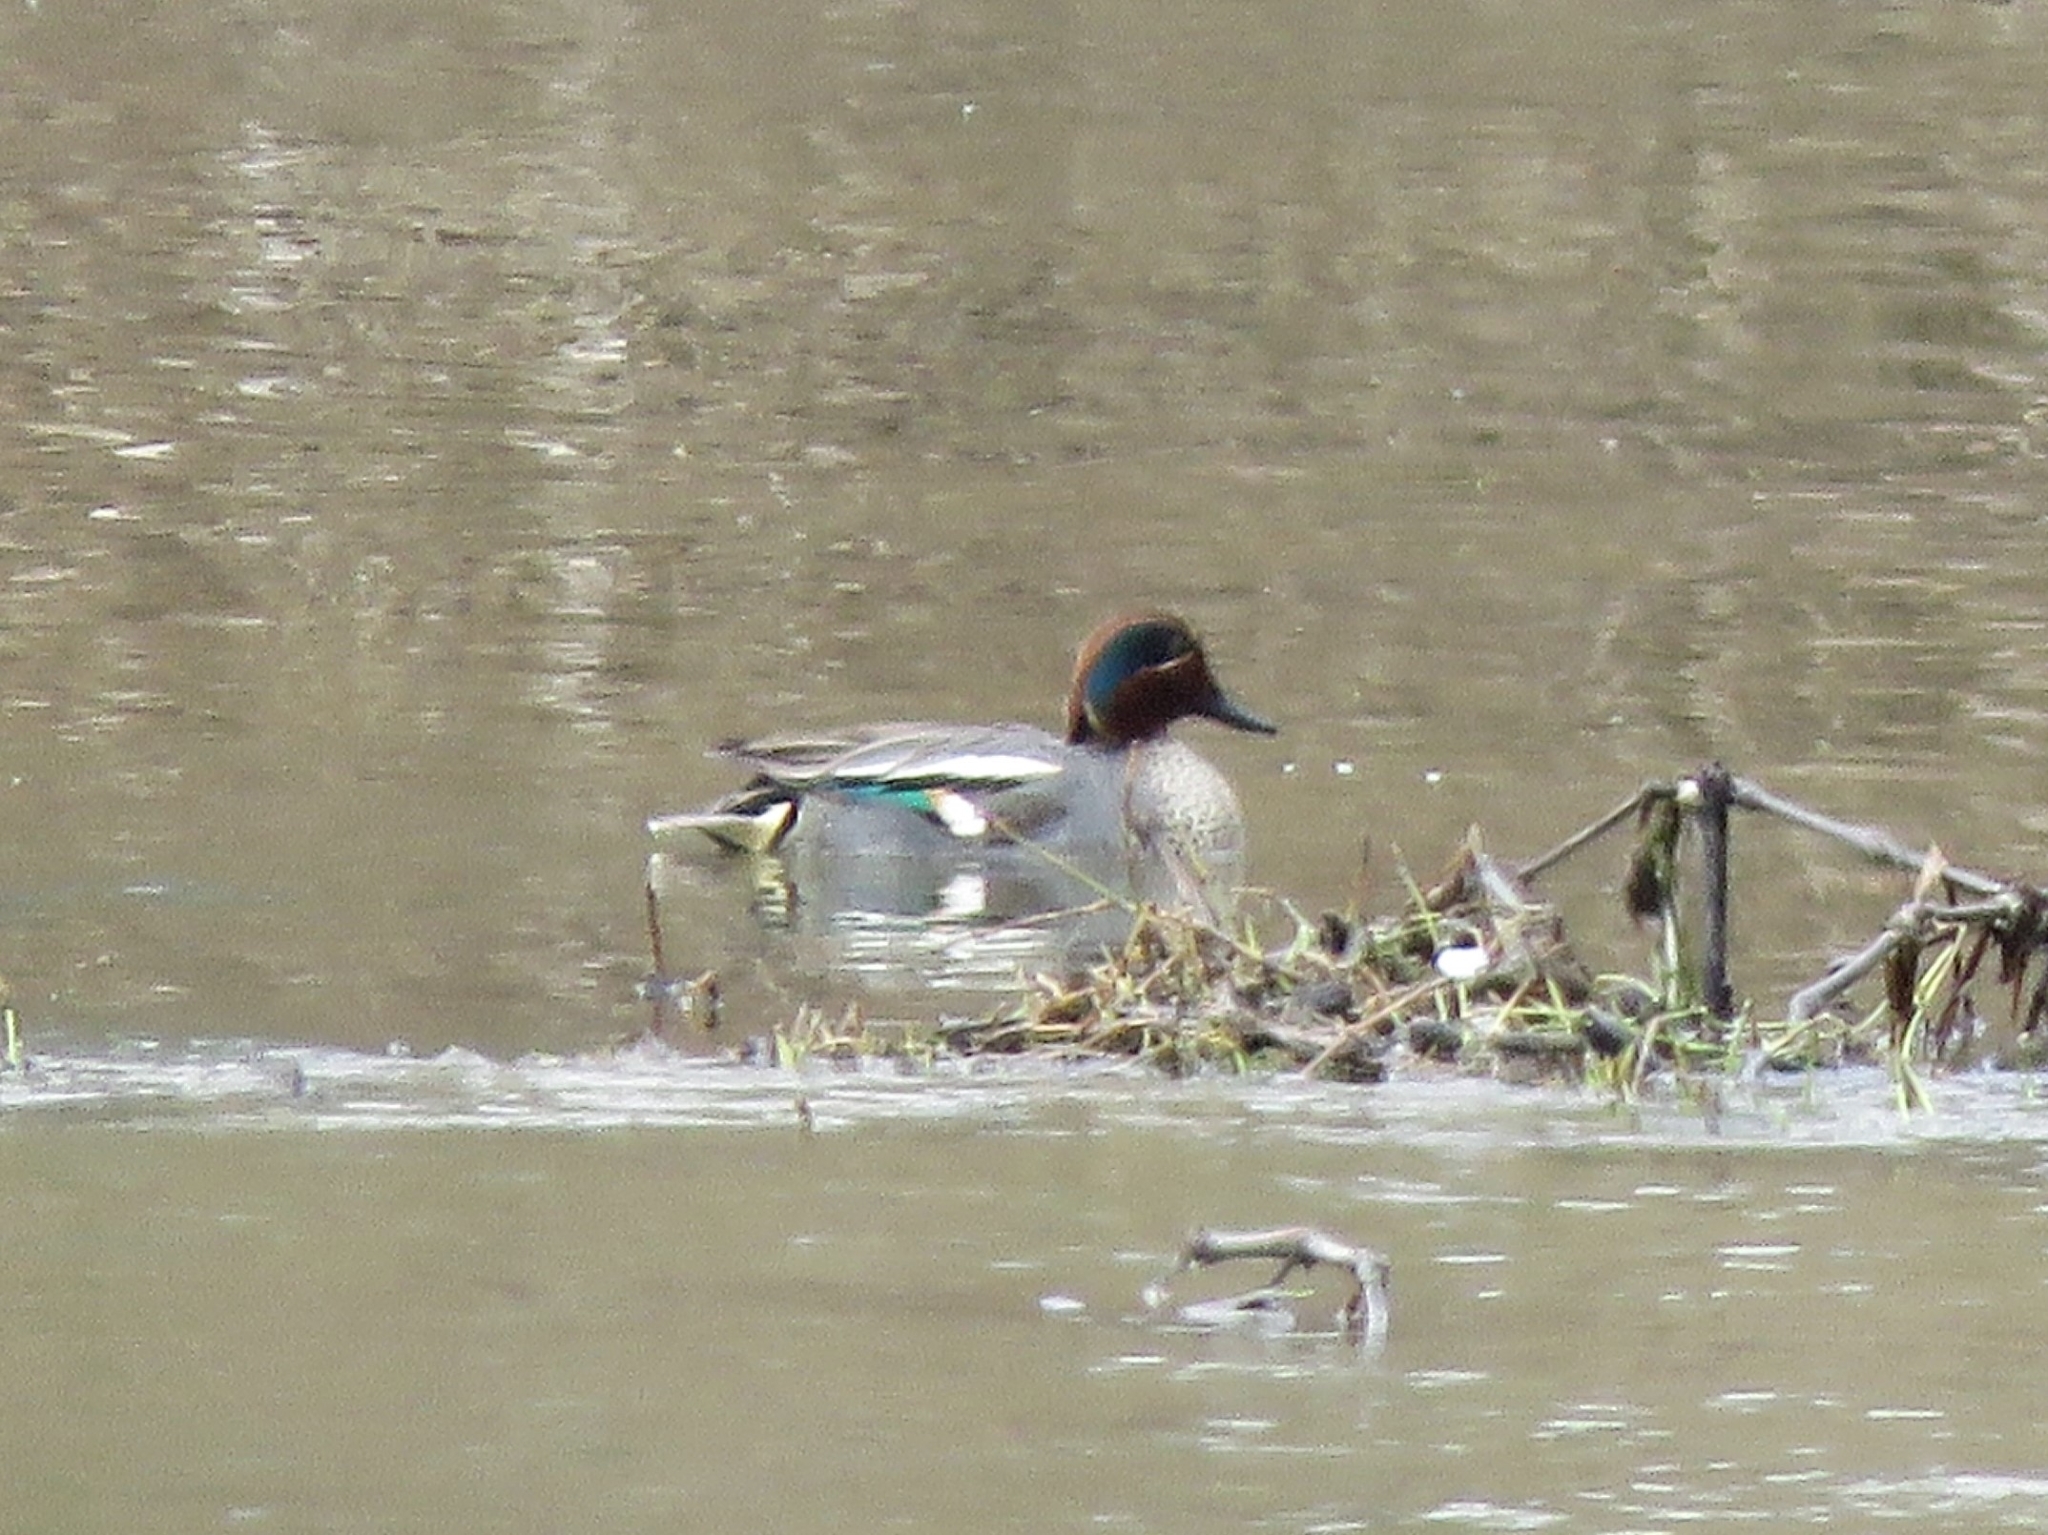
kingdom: Animalia
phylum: Chordata
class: Aves
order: Anseriformes
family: Anatidae
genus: Anas
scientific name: Anas crecca
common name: Eurasian teal
